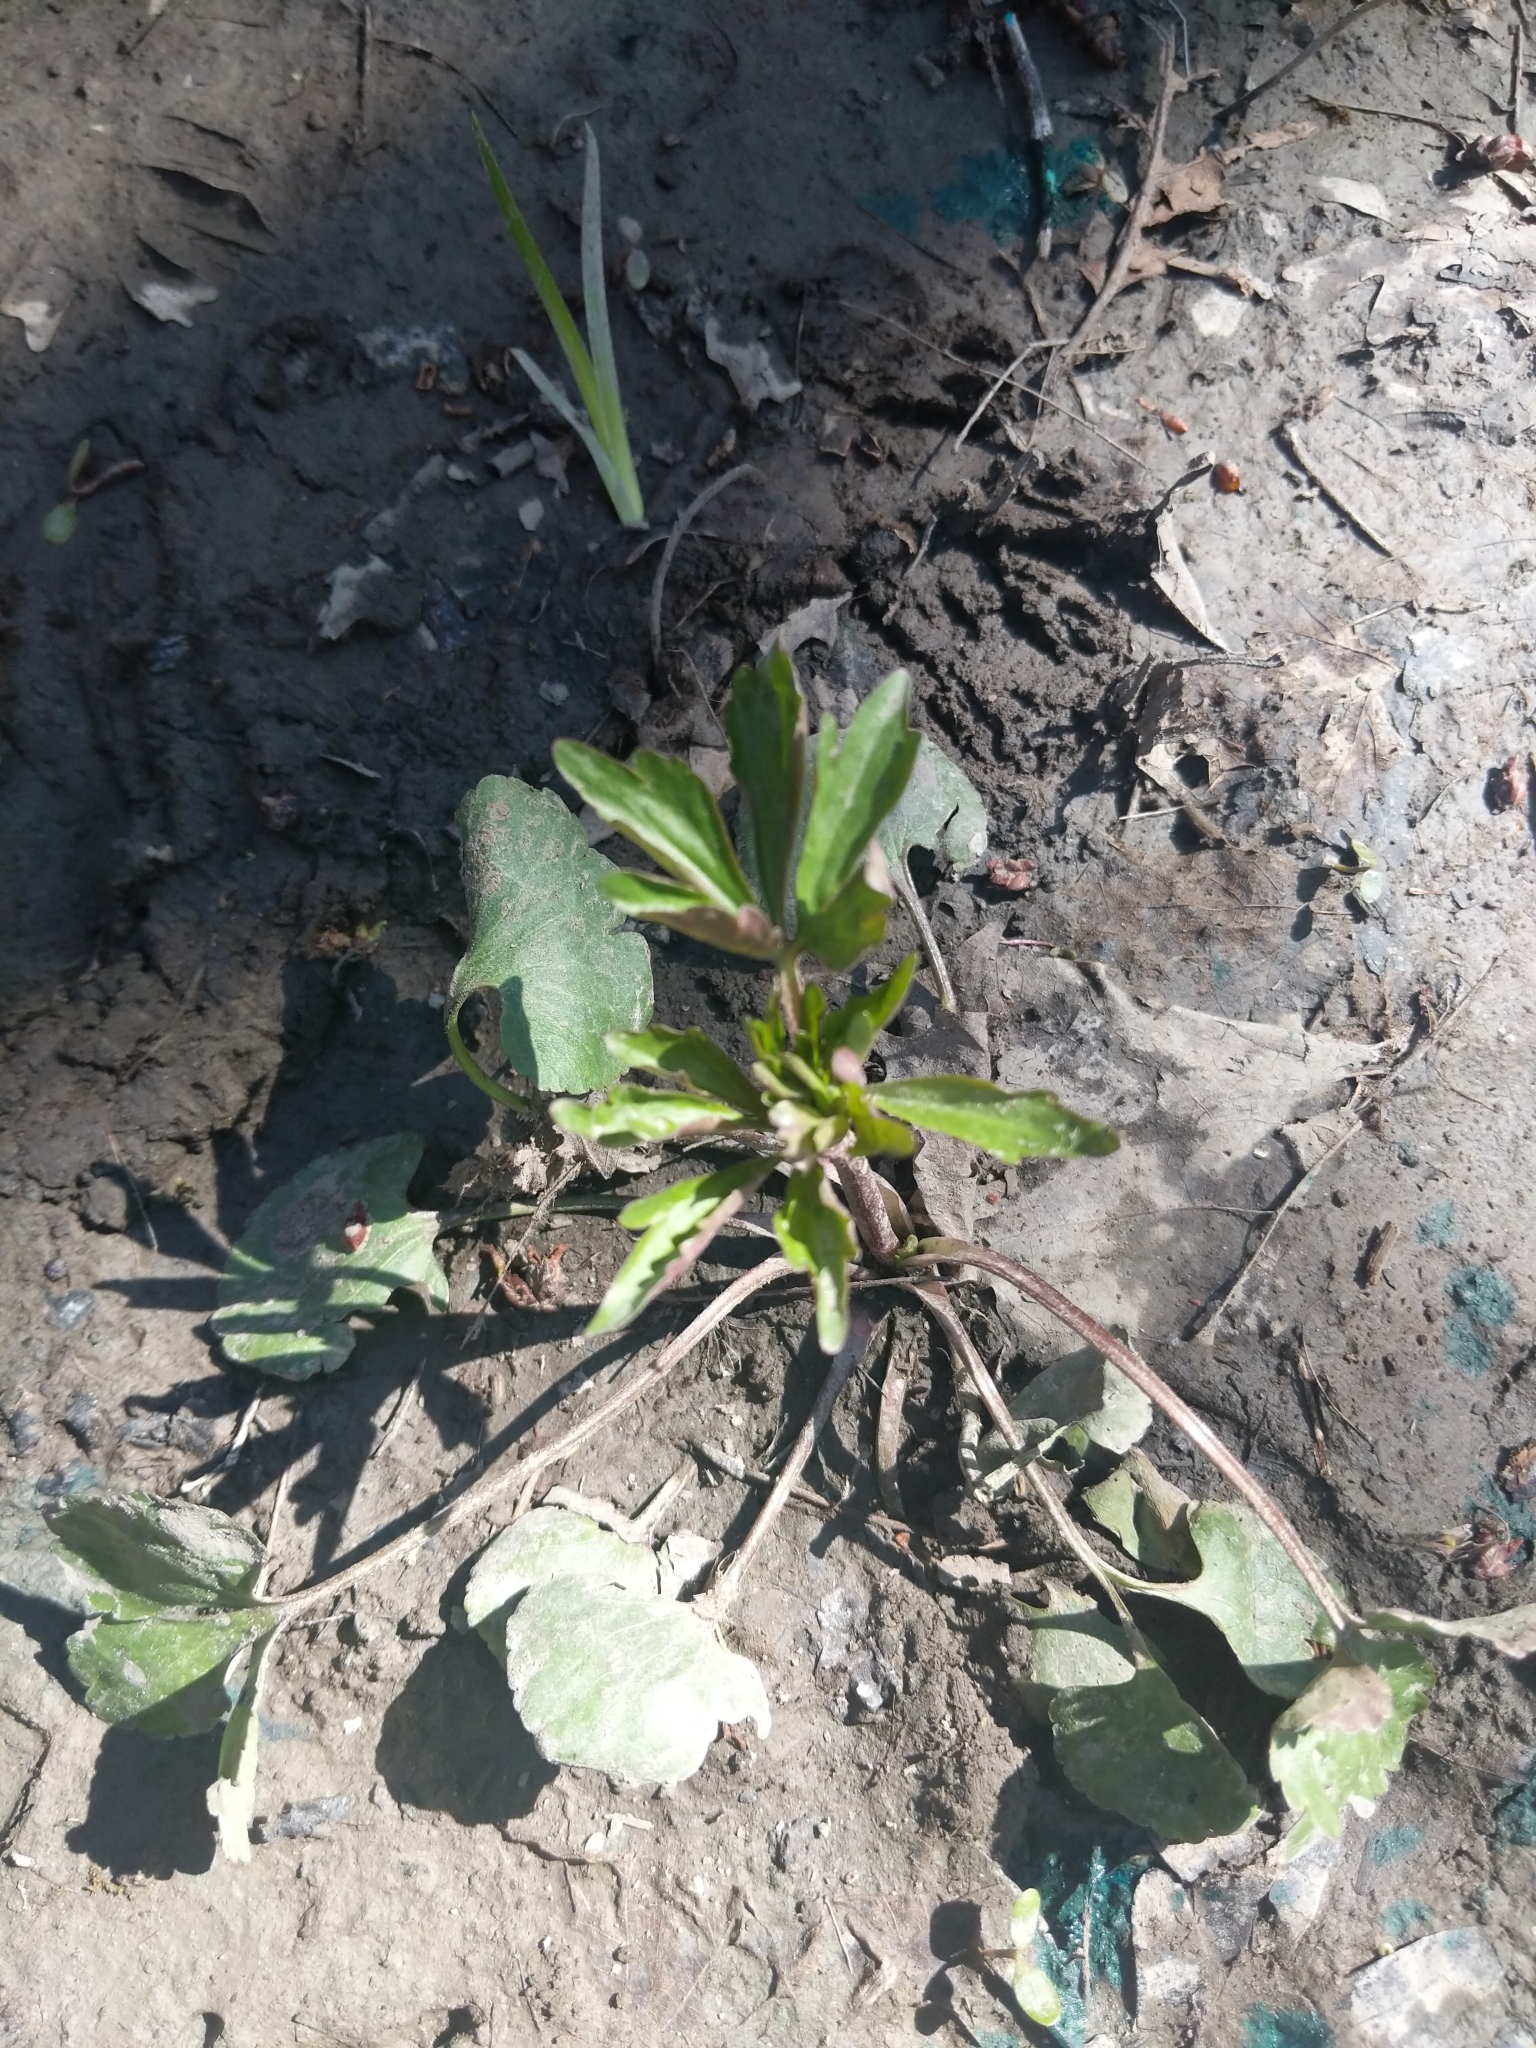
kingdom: Plantae
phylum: Tracheophyta
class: Magnoliopsida
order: Ranunculales
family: Ranunculaceae
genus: Ranunculus
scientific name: Ranunculus abortivus
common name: Early wood buttercup
